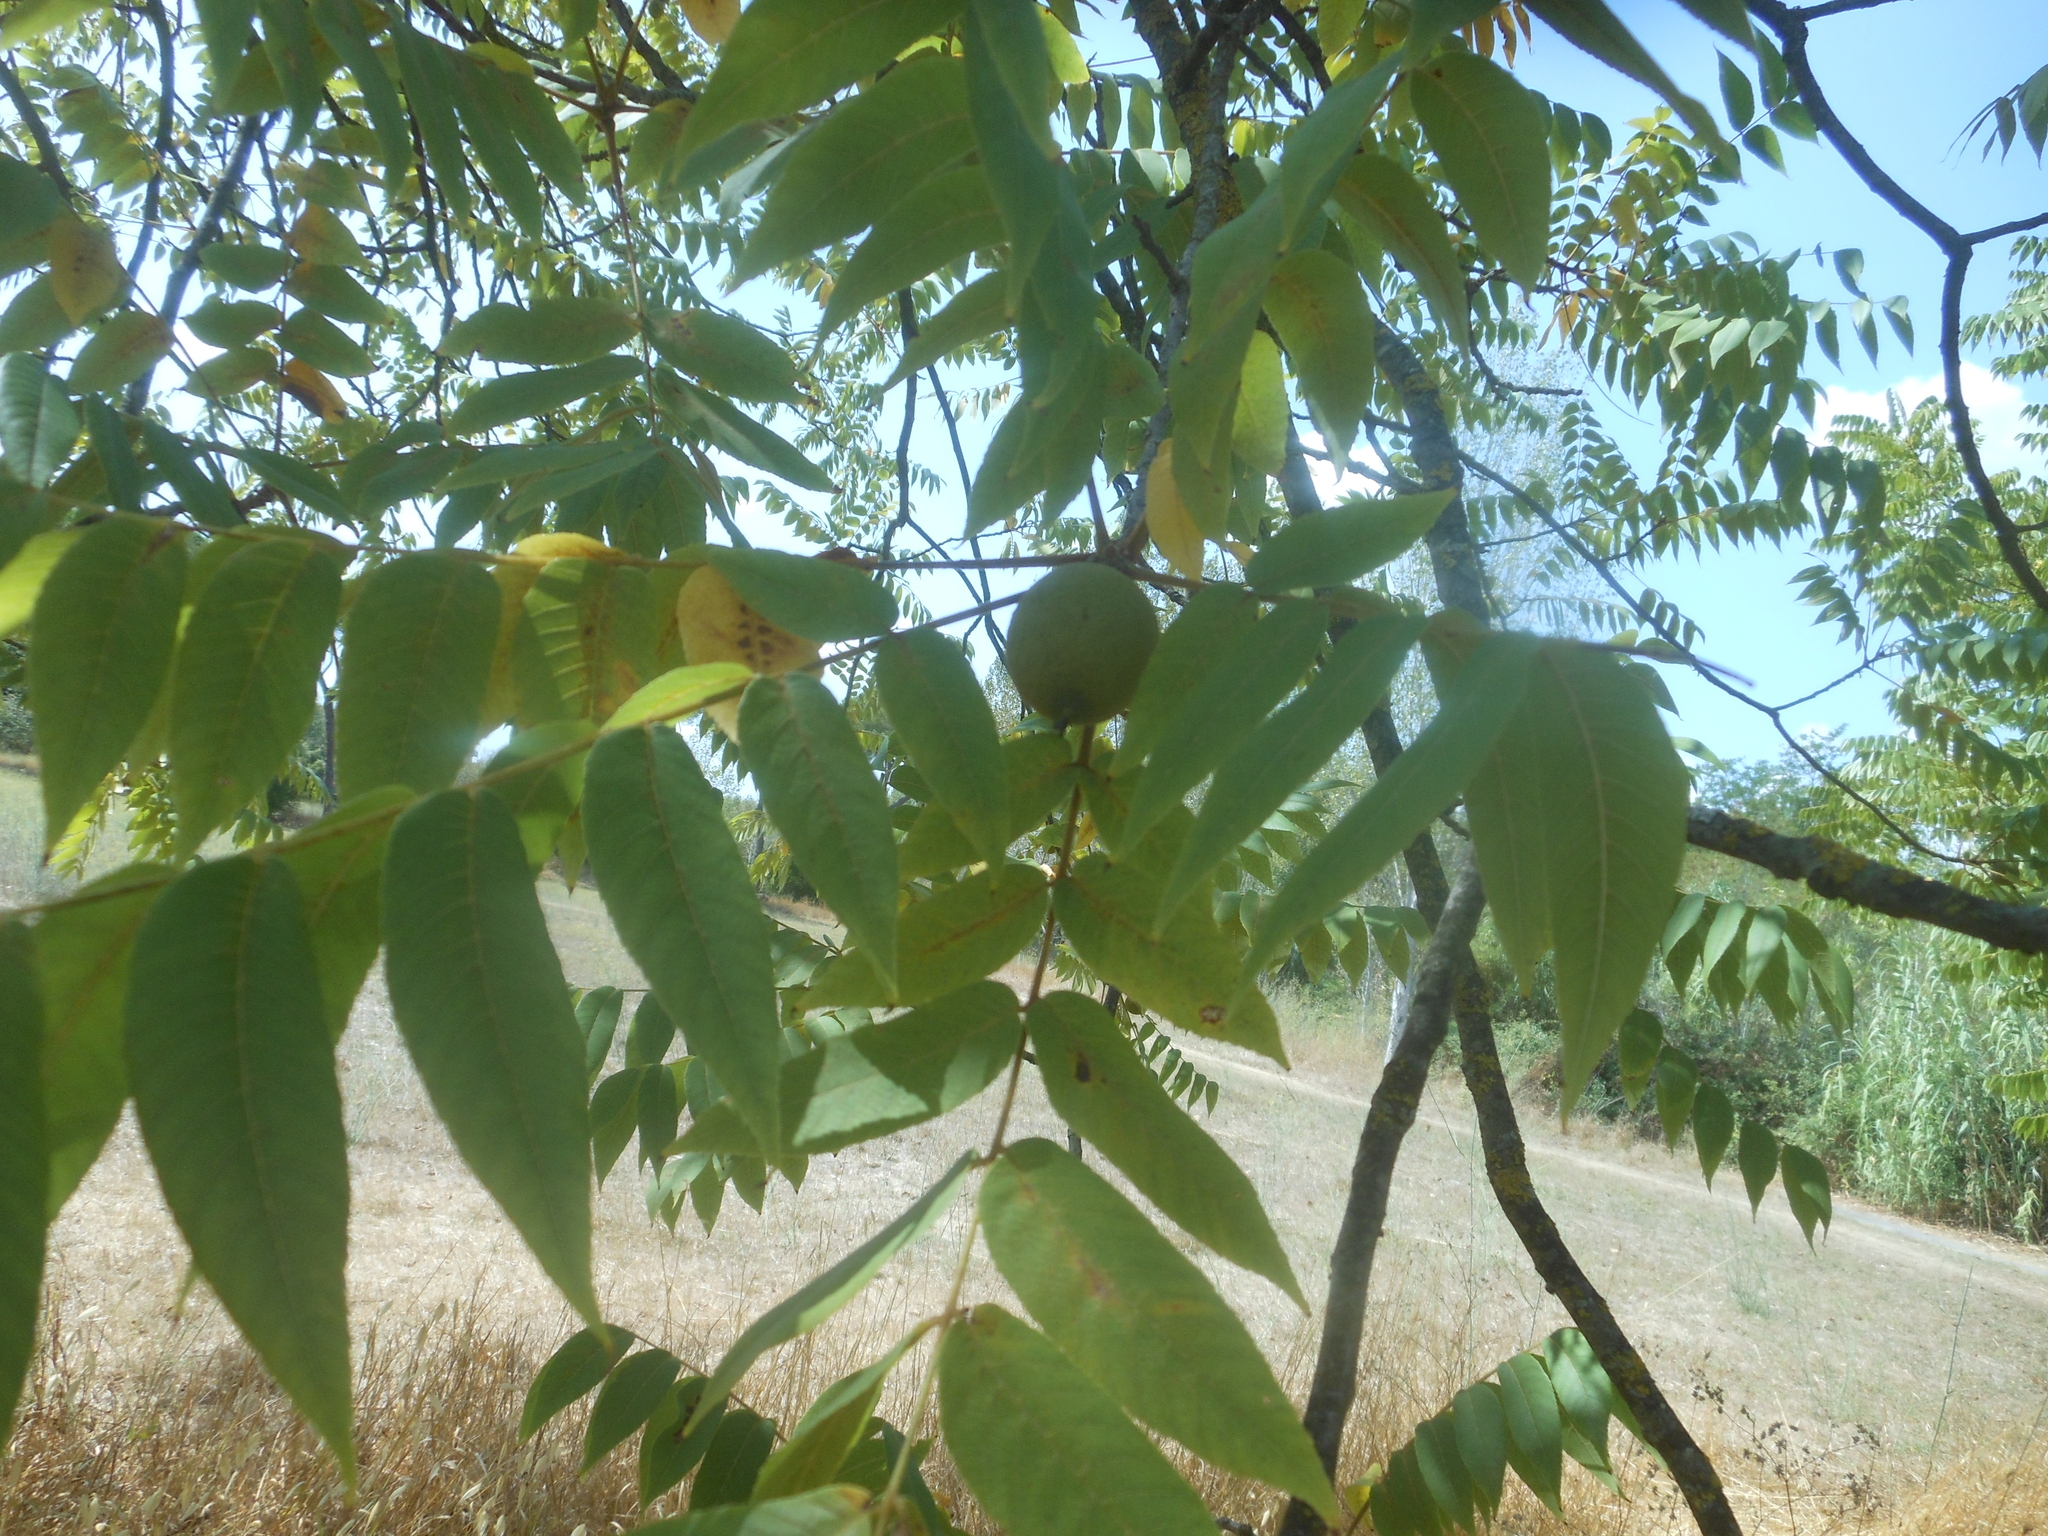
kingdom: Plantae
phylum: Tracheophyta
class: Magnoliopsida
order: Fagales
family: Juglandaceae
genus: Juglans
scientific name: Juglans nigra
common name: Black walnut
